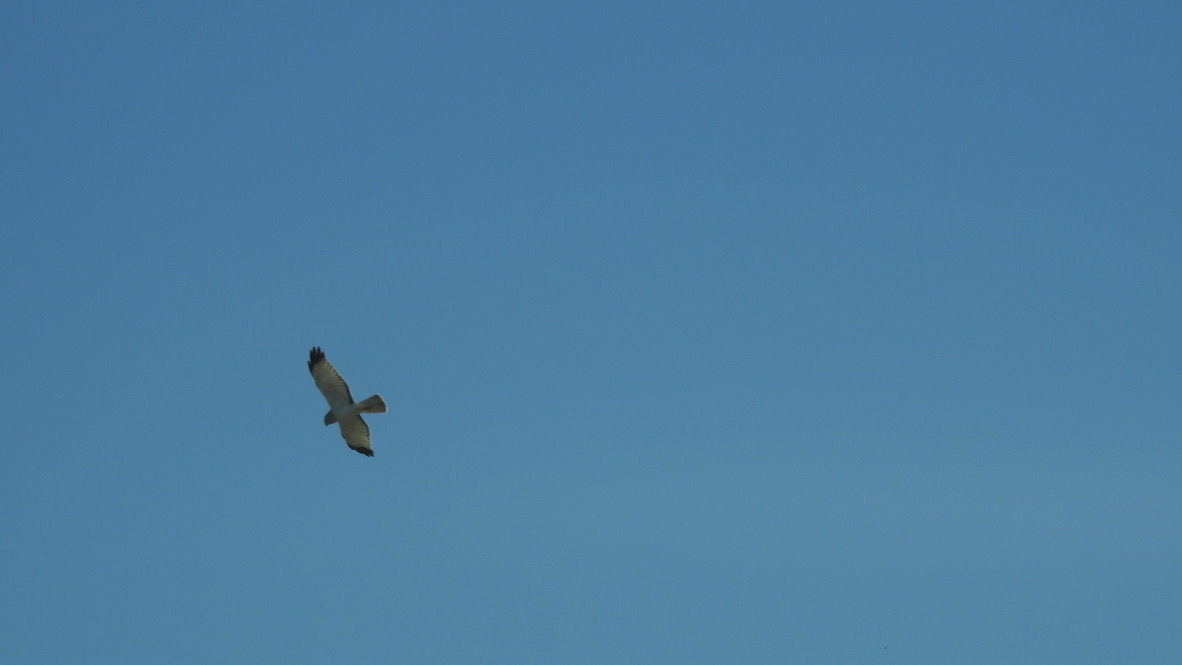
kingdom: Animalia
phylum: Chordata
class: Aves
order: Accipitriformes
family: Accipitridae
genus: Circus
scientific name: Circus cyaneus
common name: Hen harrier
